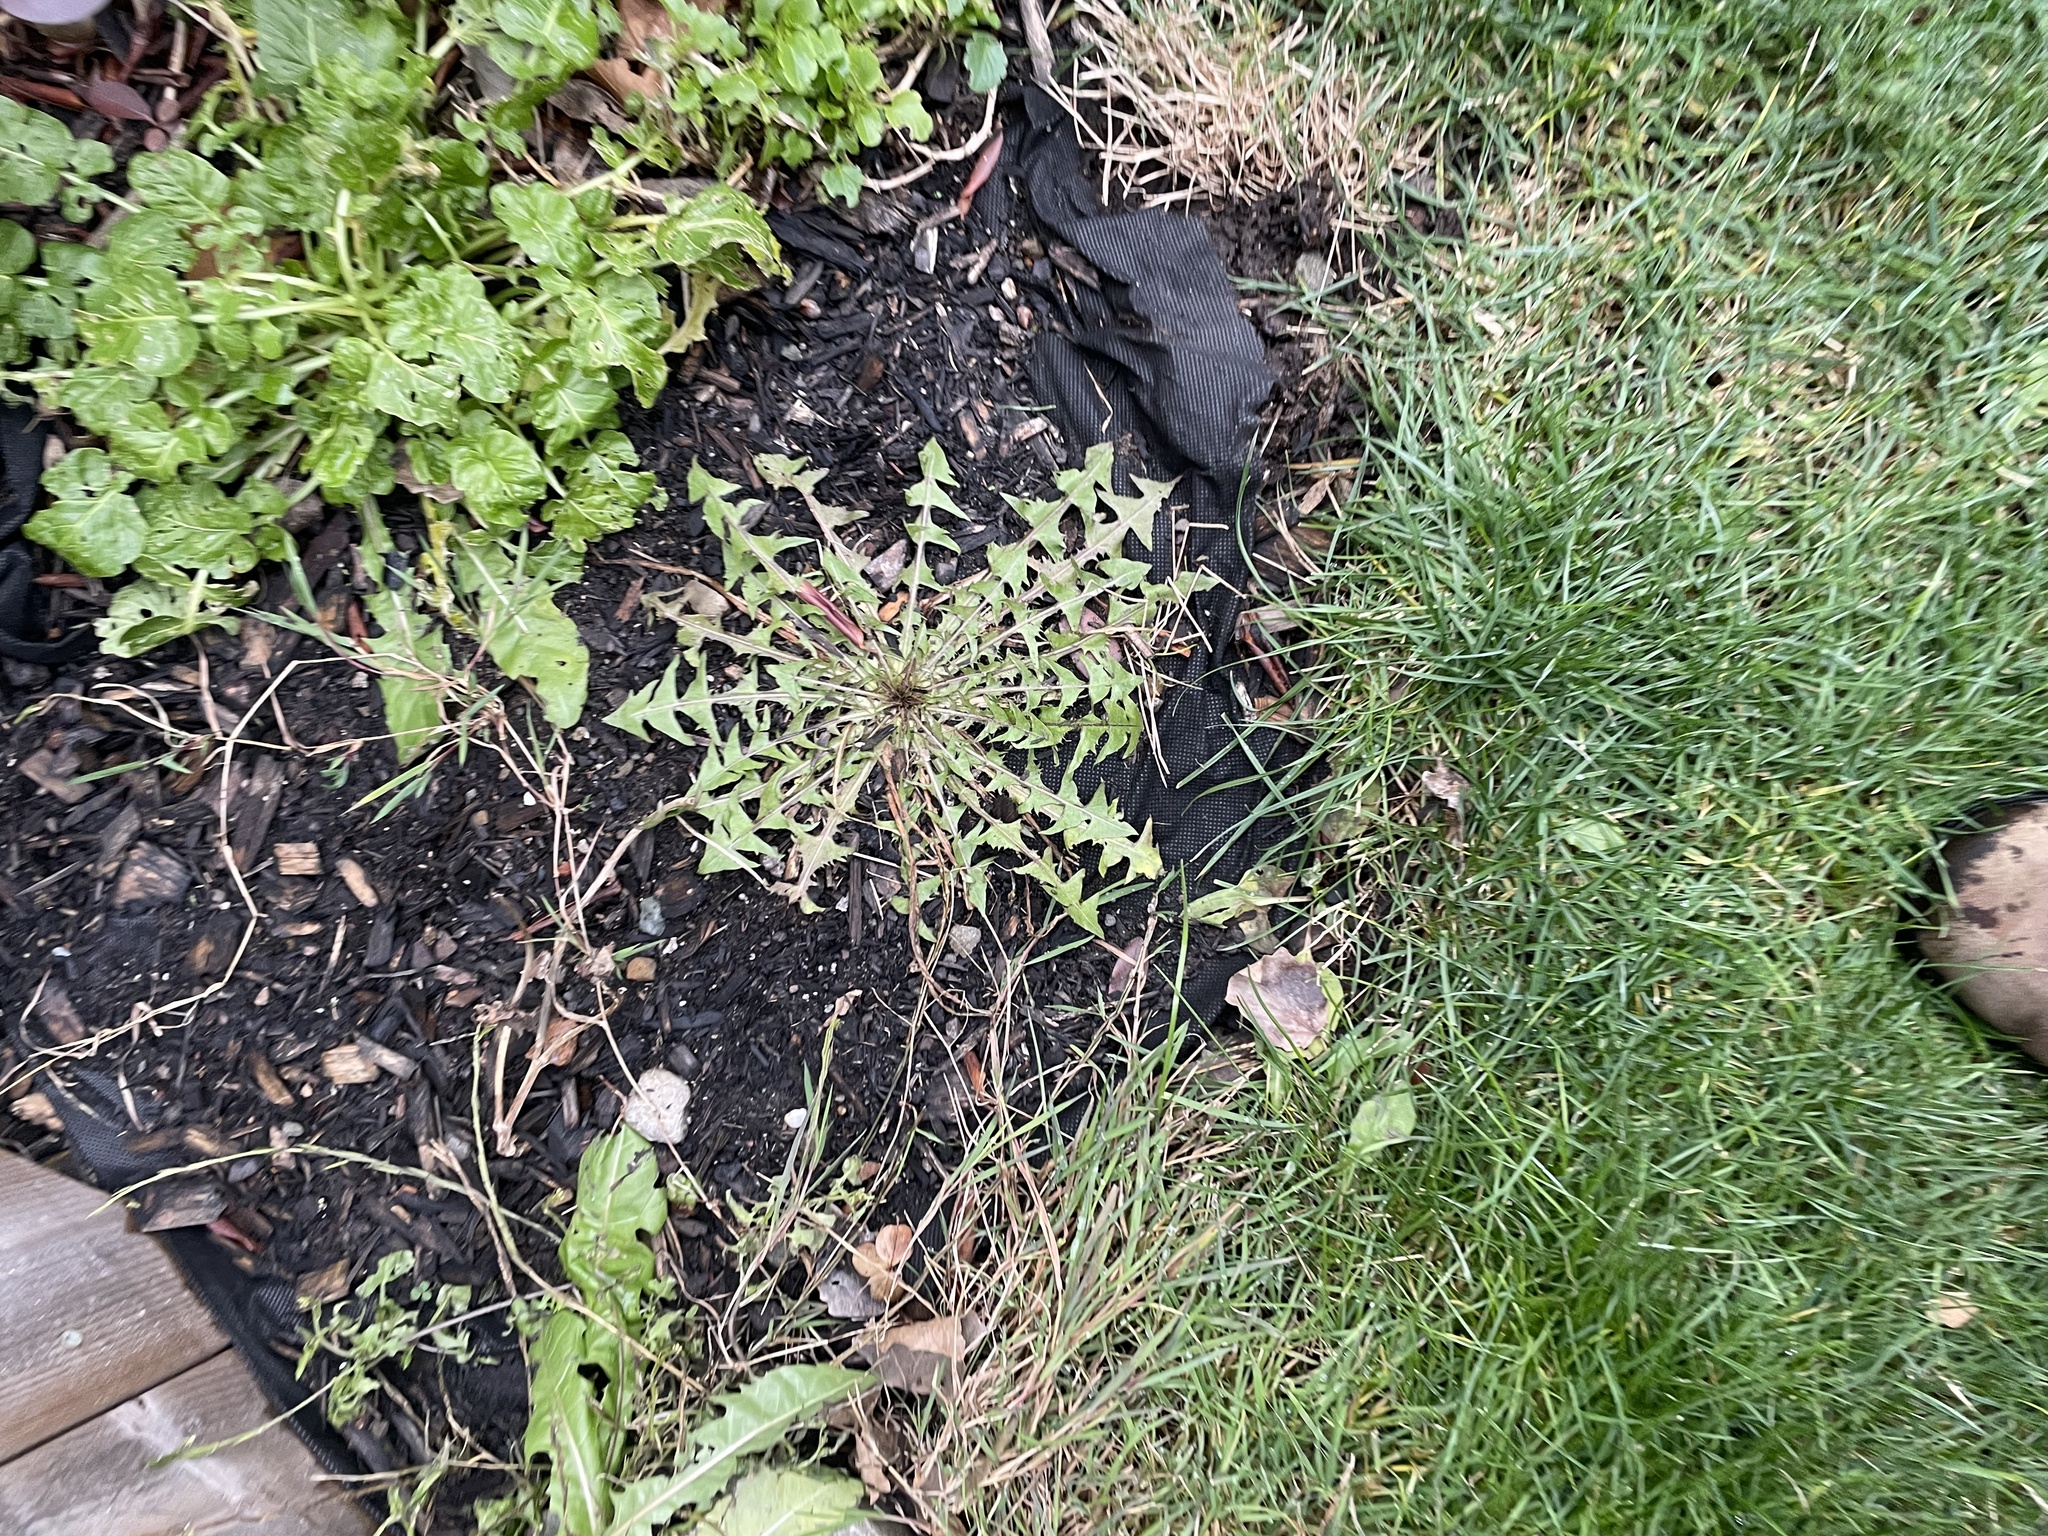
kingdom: Plantae
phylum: Tracheophyta
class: Magnoliopsida
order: Asterales
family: Asteraceae
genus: Taraxacum
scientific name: Taraxacum officinale
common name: Common dandelion
